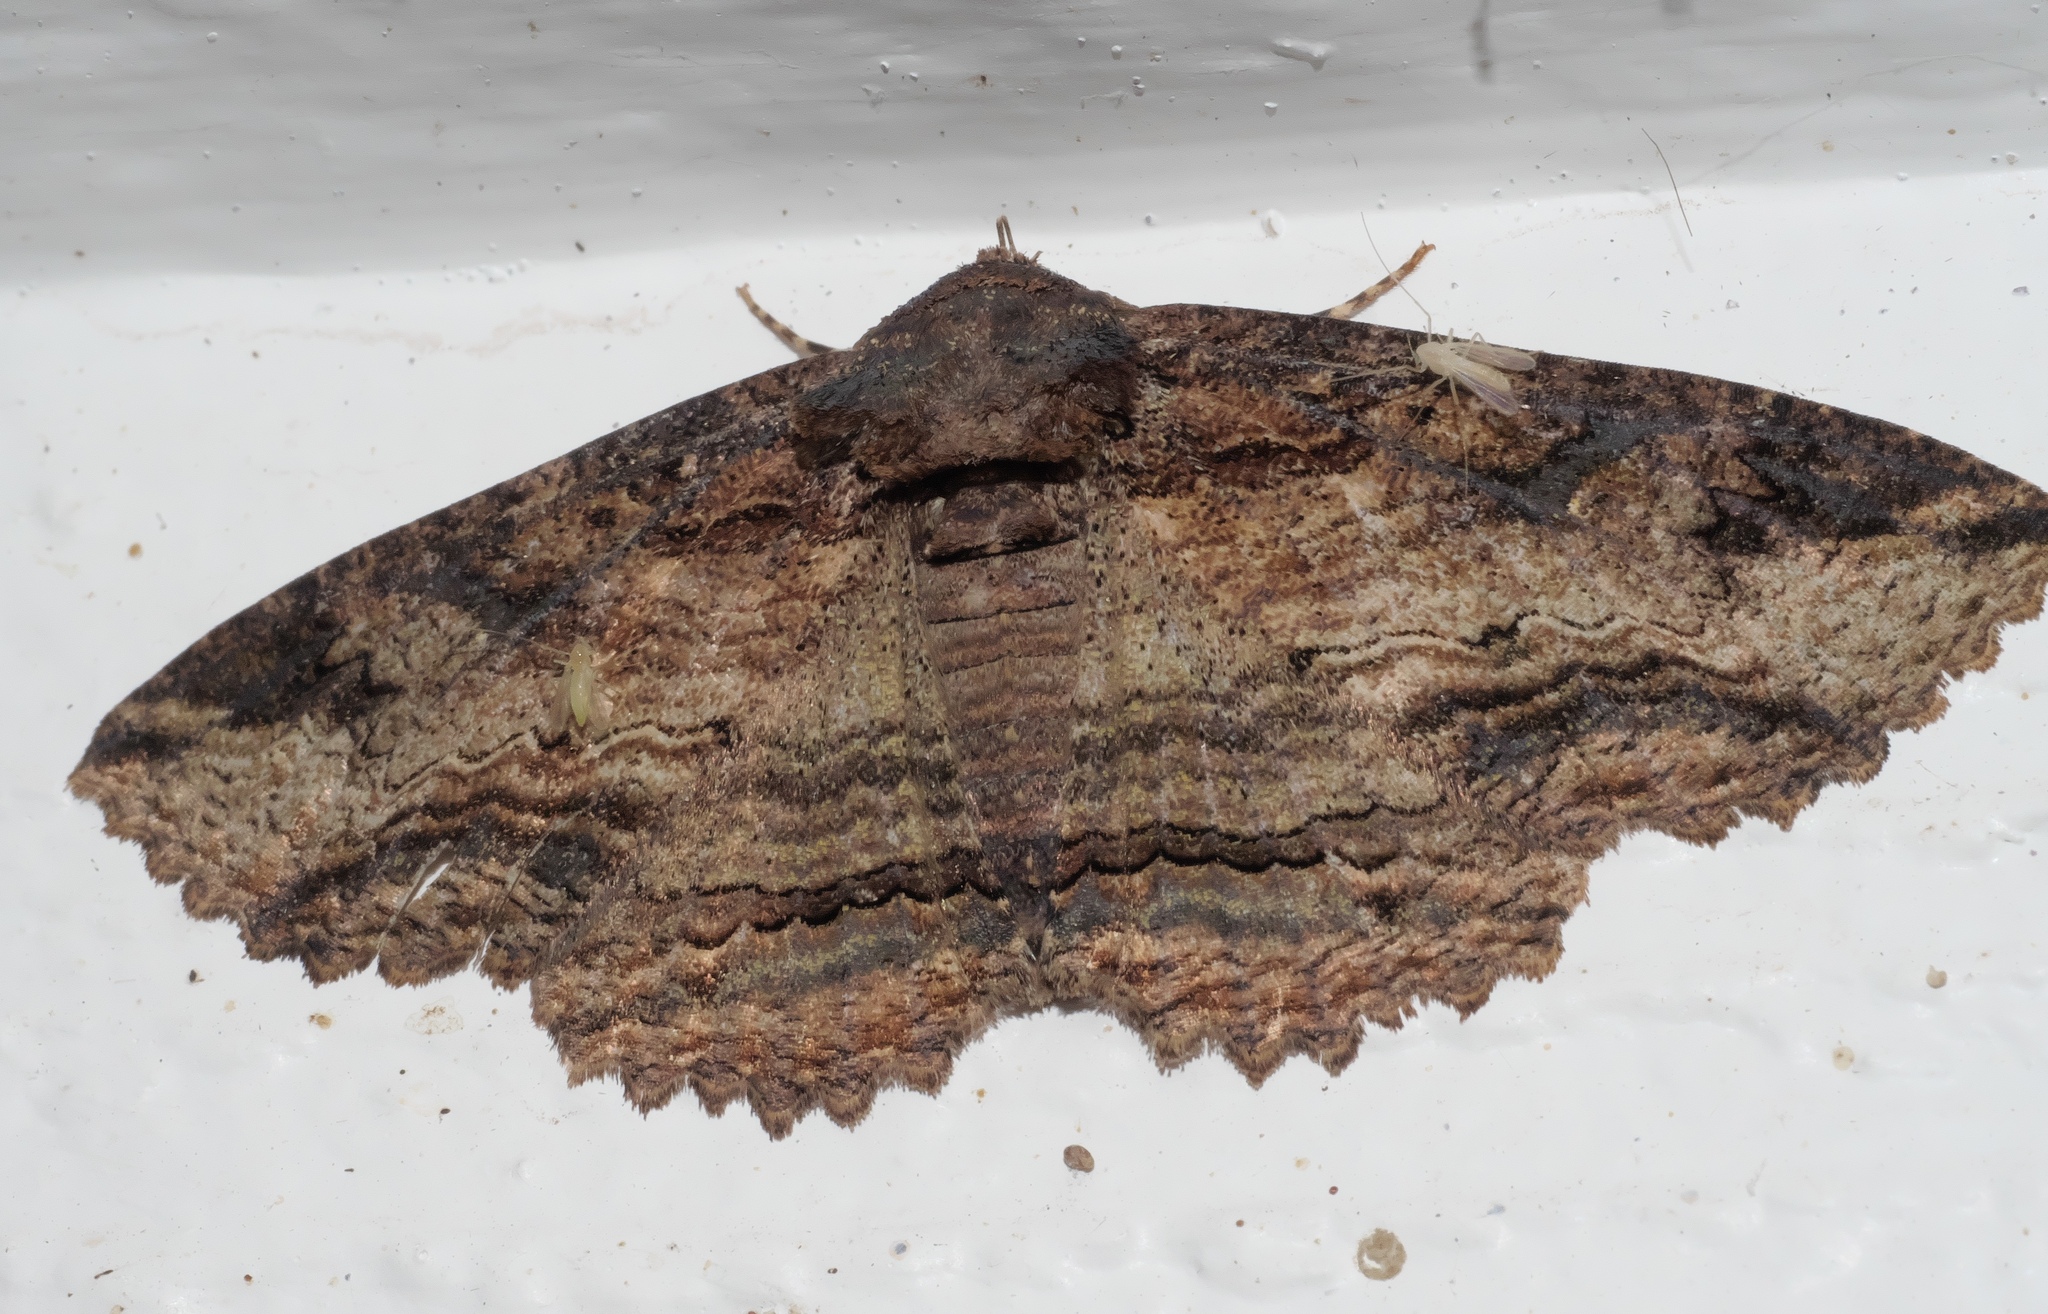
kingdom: Animalia
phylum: Arthropoda
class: Insecta
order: Lepidoptera
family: Erebidae
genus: Zale
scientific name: Zale lunata
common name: Lunate zale moth
